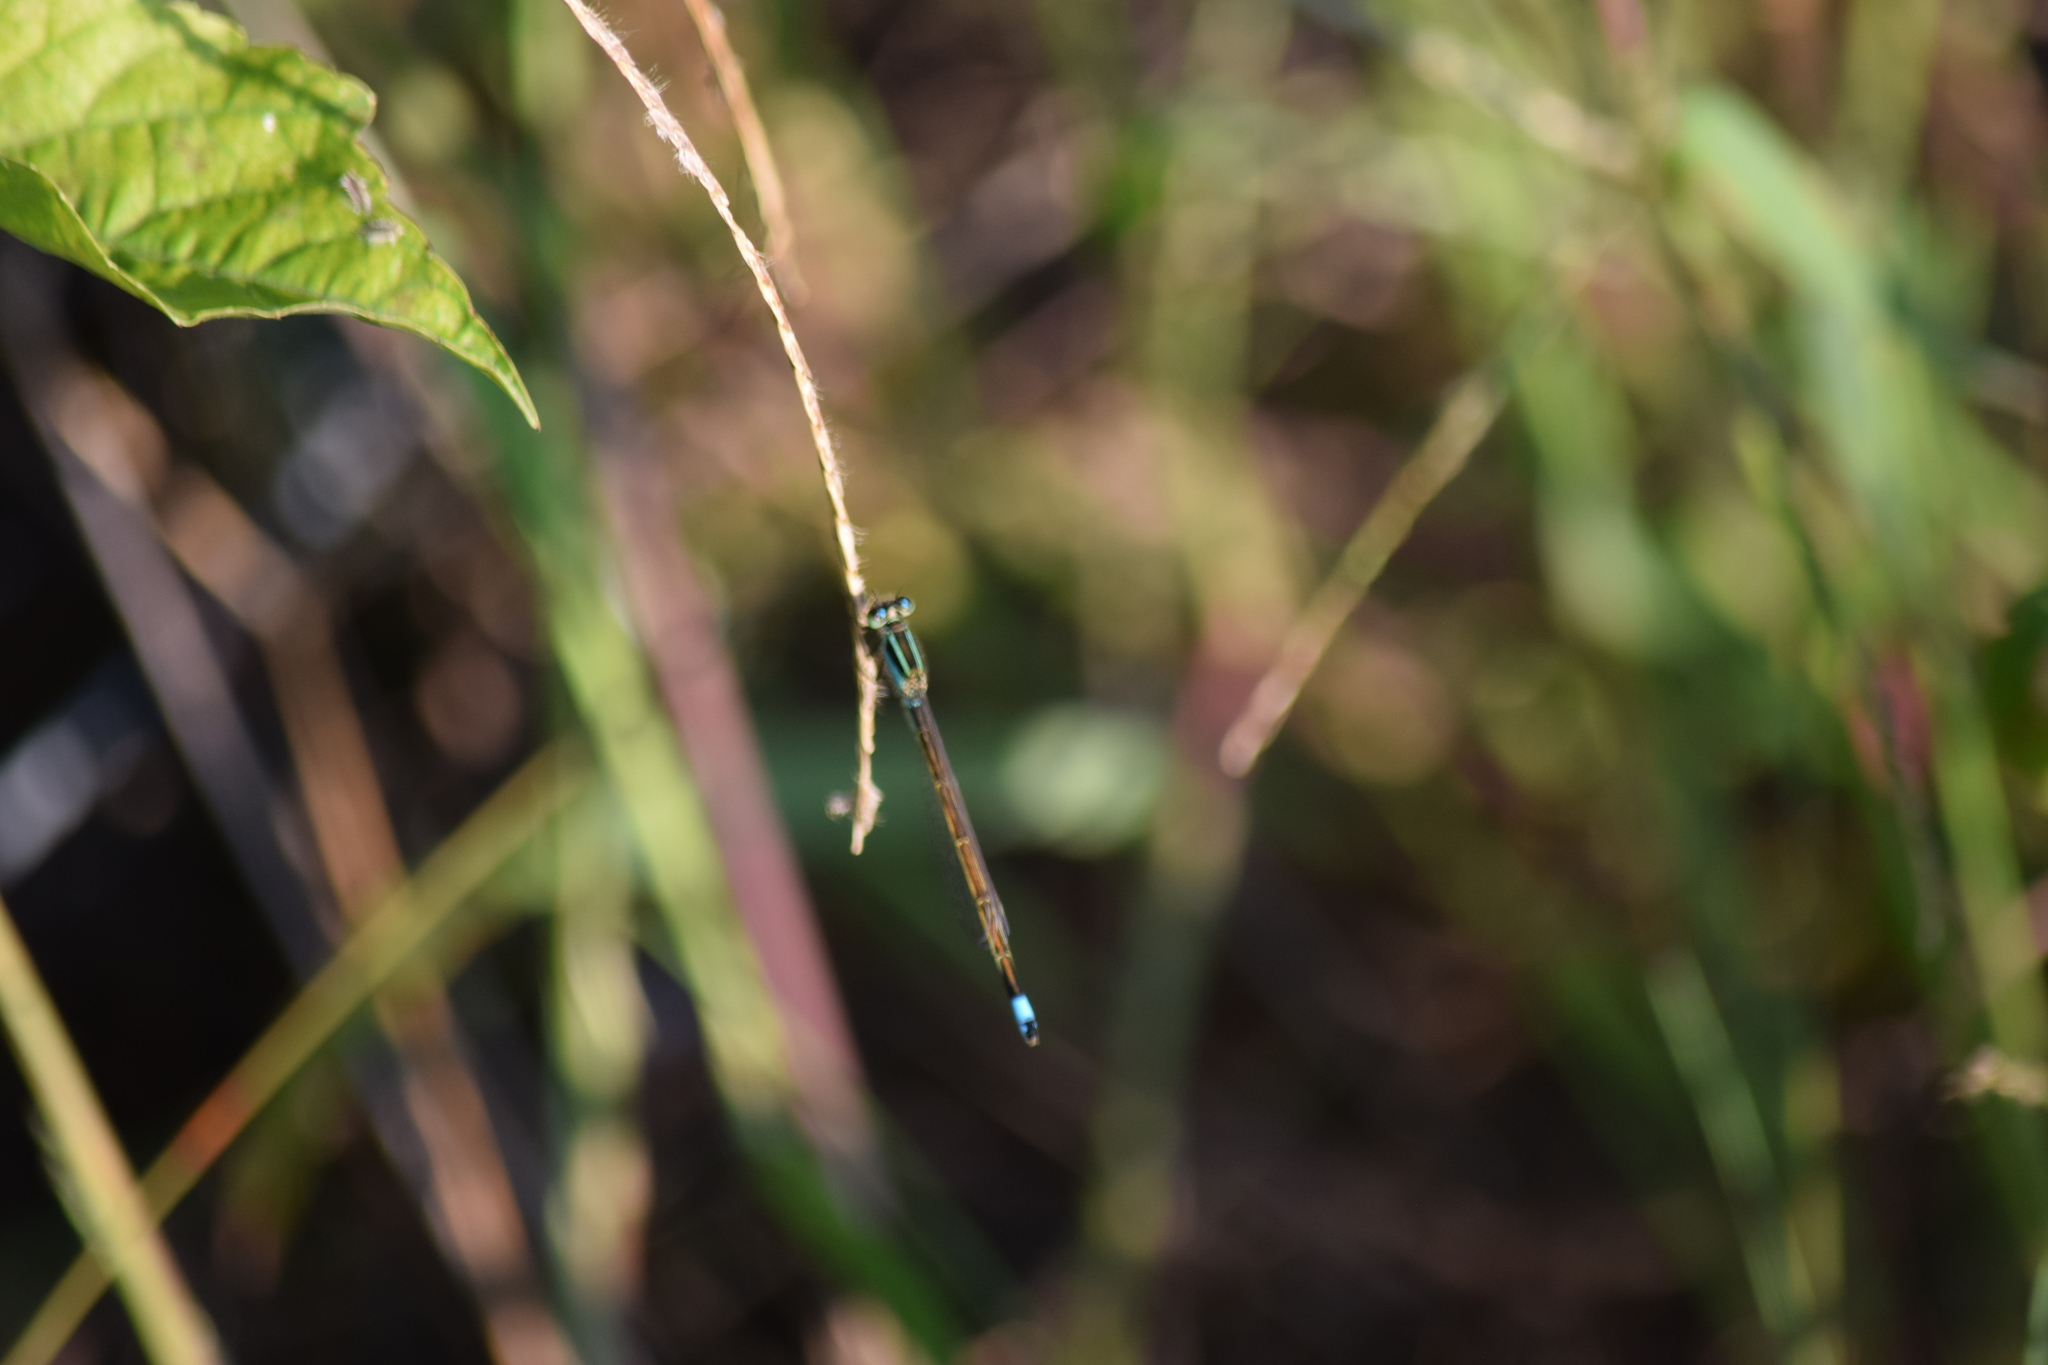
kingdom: Animalia
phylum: Arthropoda
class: Insecta
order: Odonata
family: Coenagrionidae
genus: Ischnura
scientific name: Ischnura ramburii
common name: Rambur's forktail
